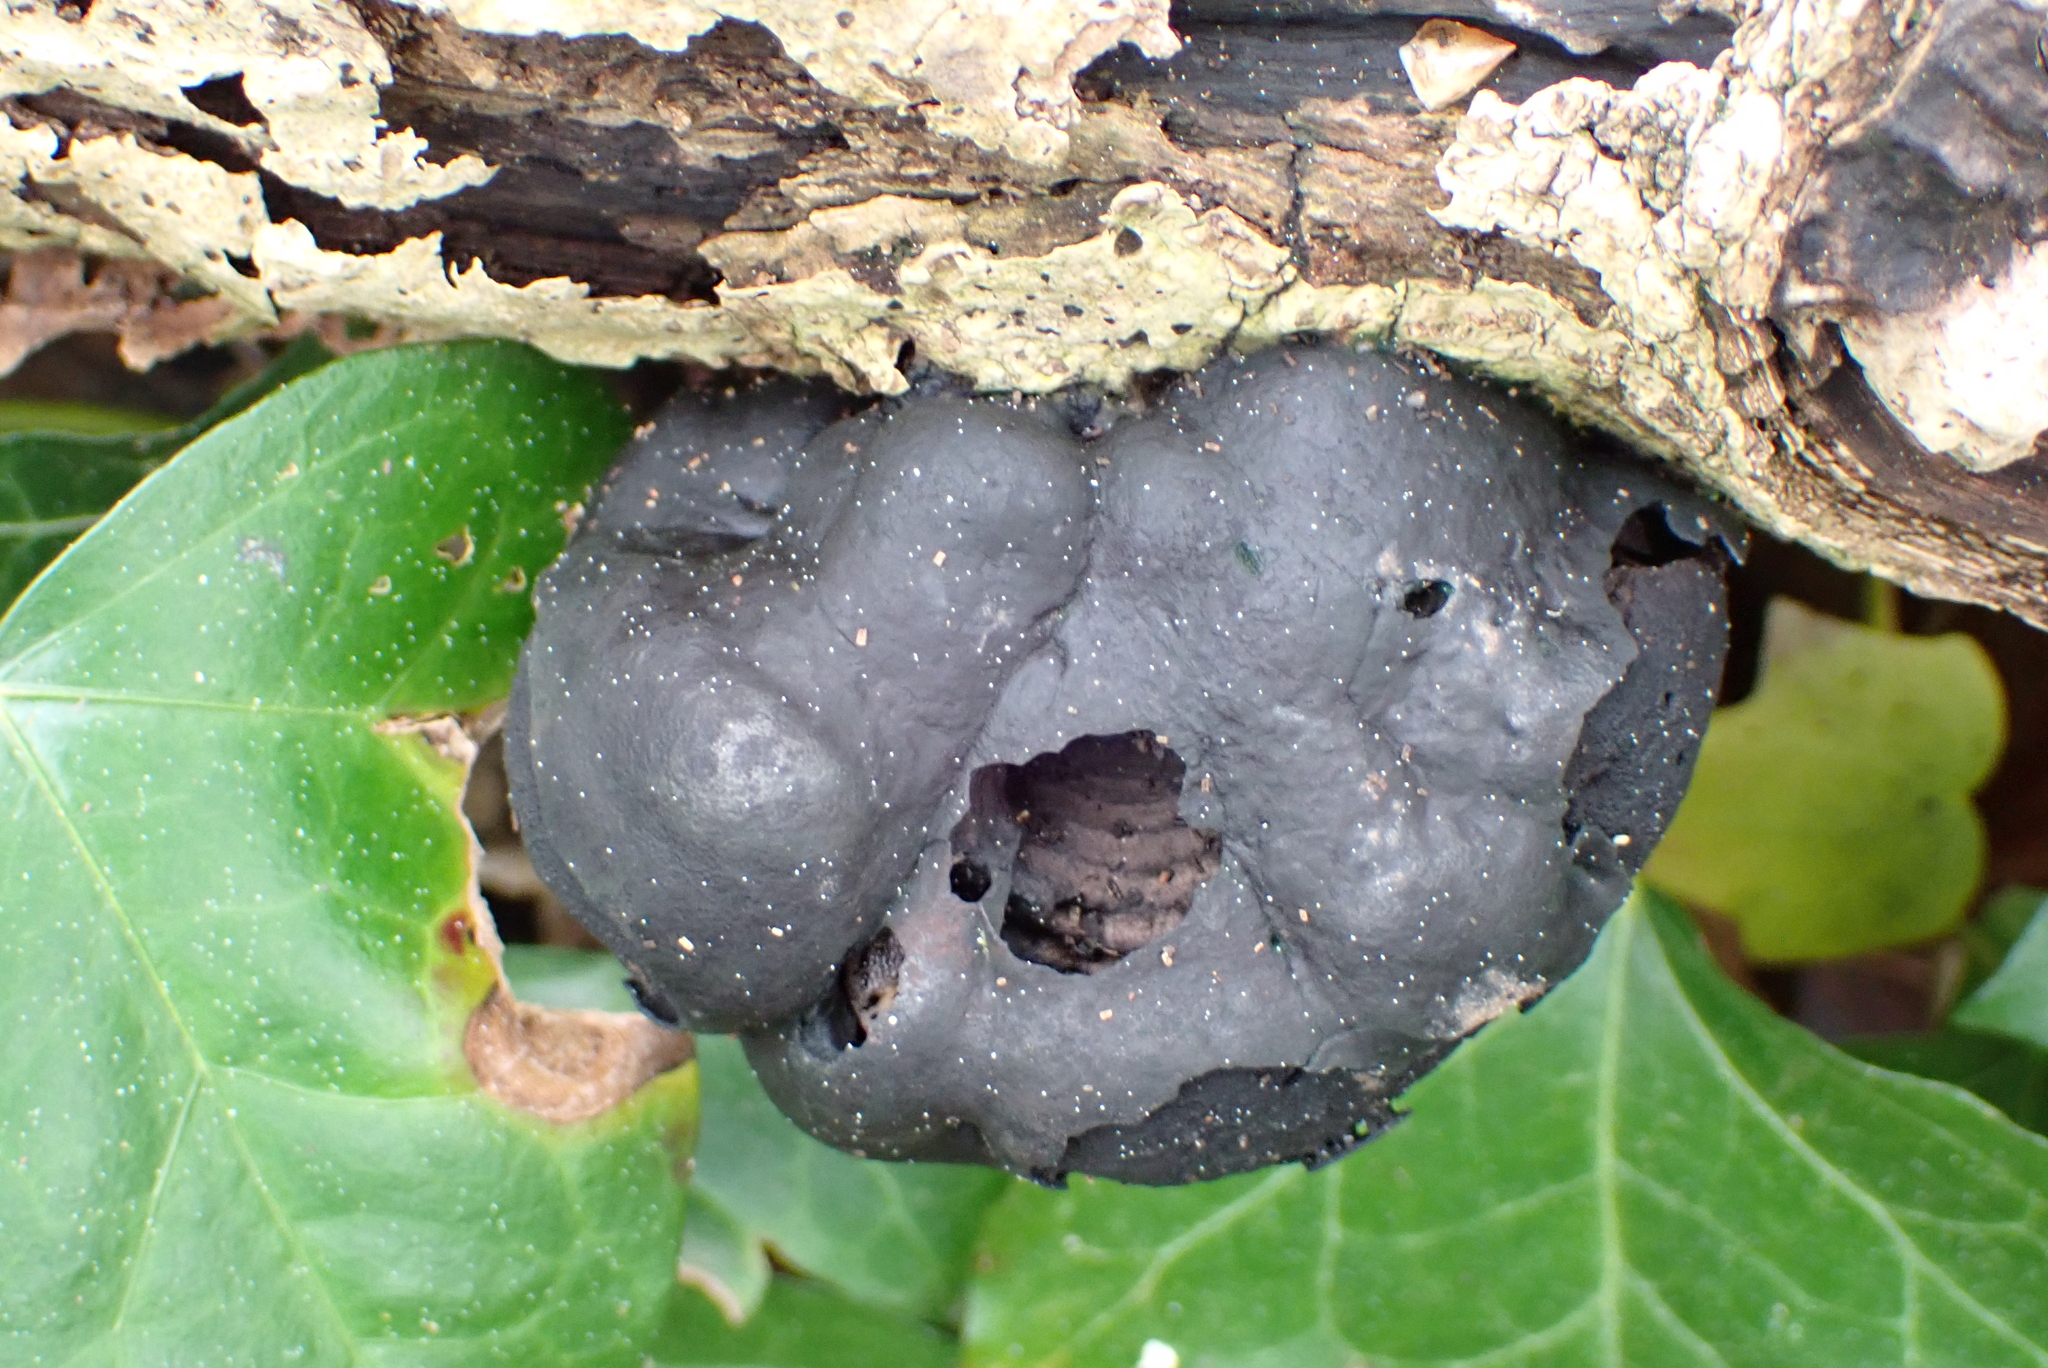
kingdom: Fungi
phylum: Ascomycota
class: Sordariomycetes
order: Xylariales
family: Hypoxylaceae
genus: Daldinia
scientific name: Daldinia concentrica
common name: Cramp balls
